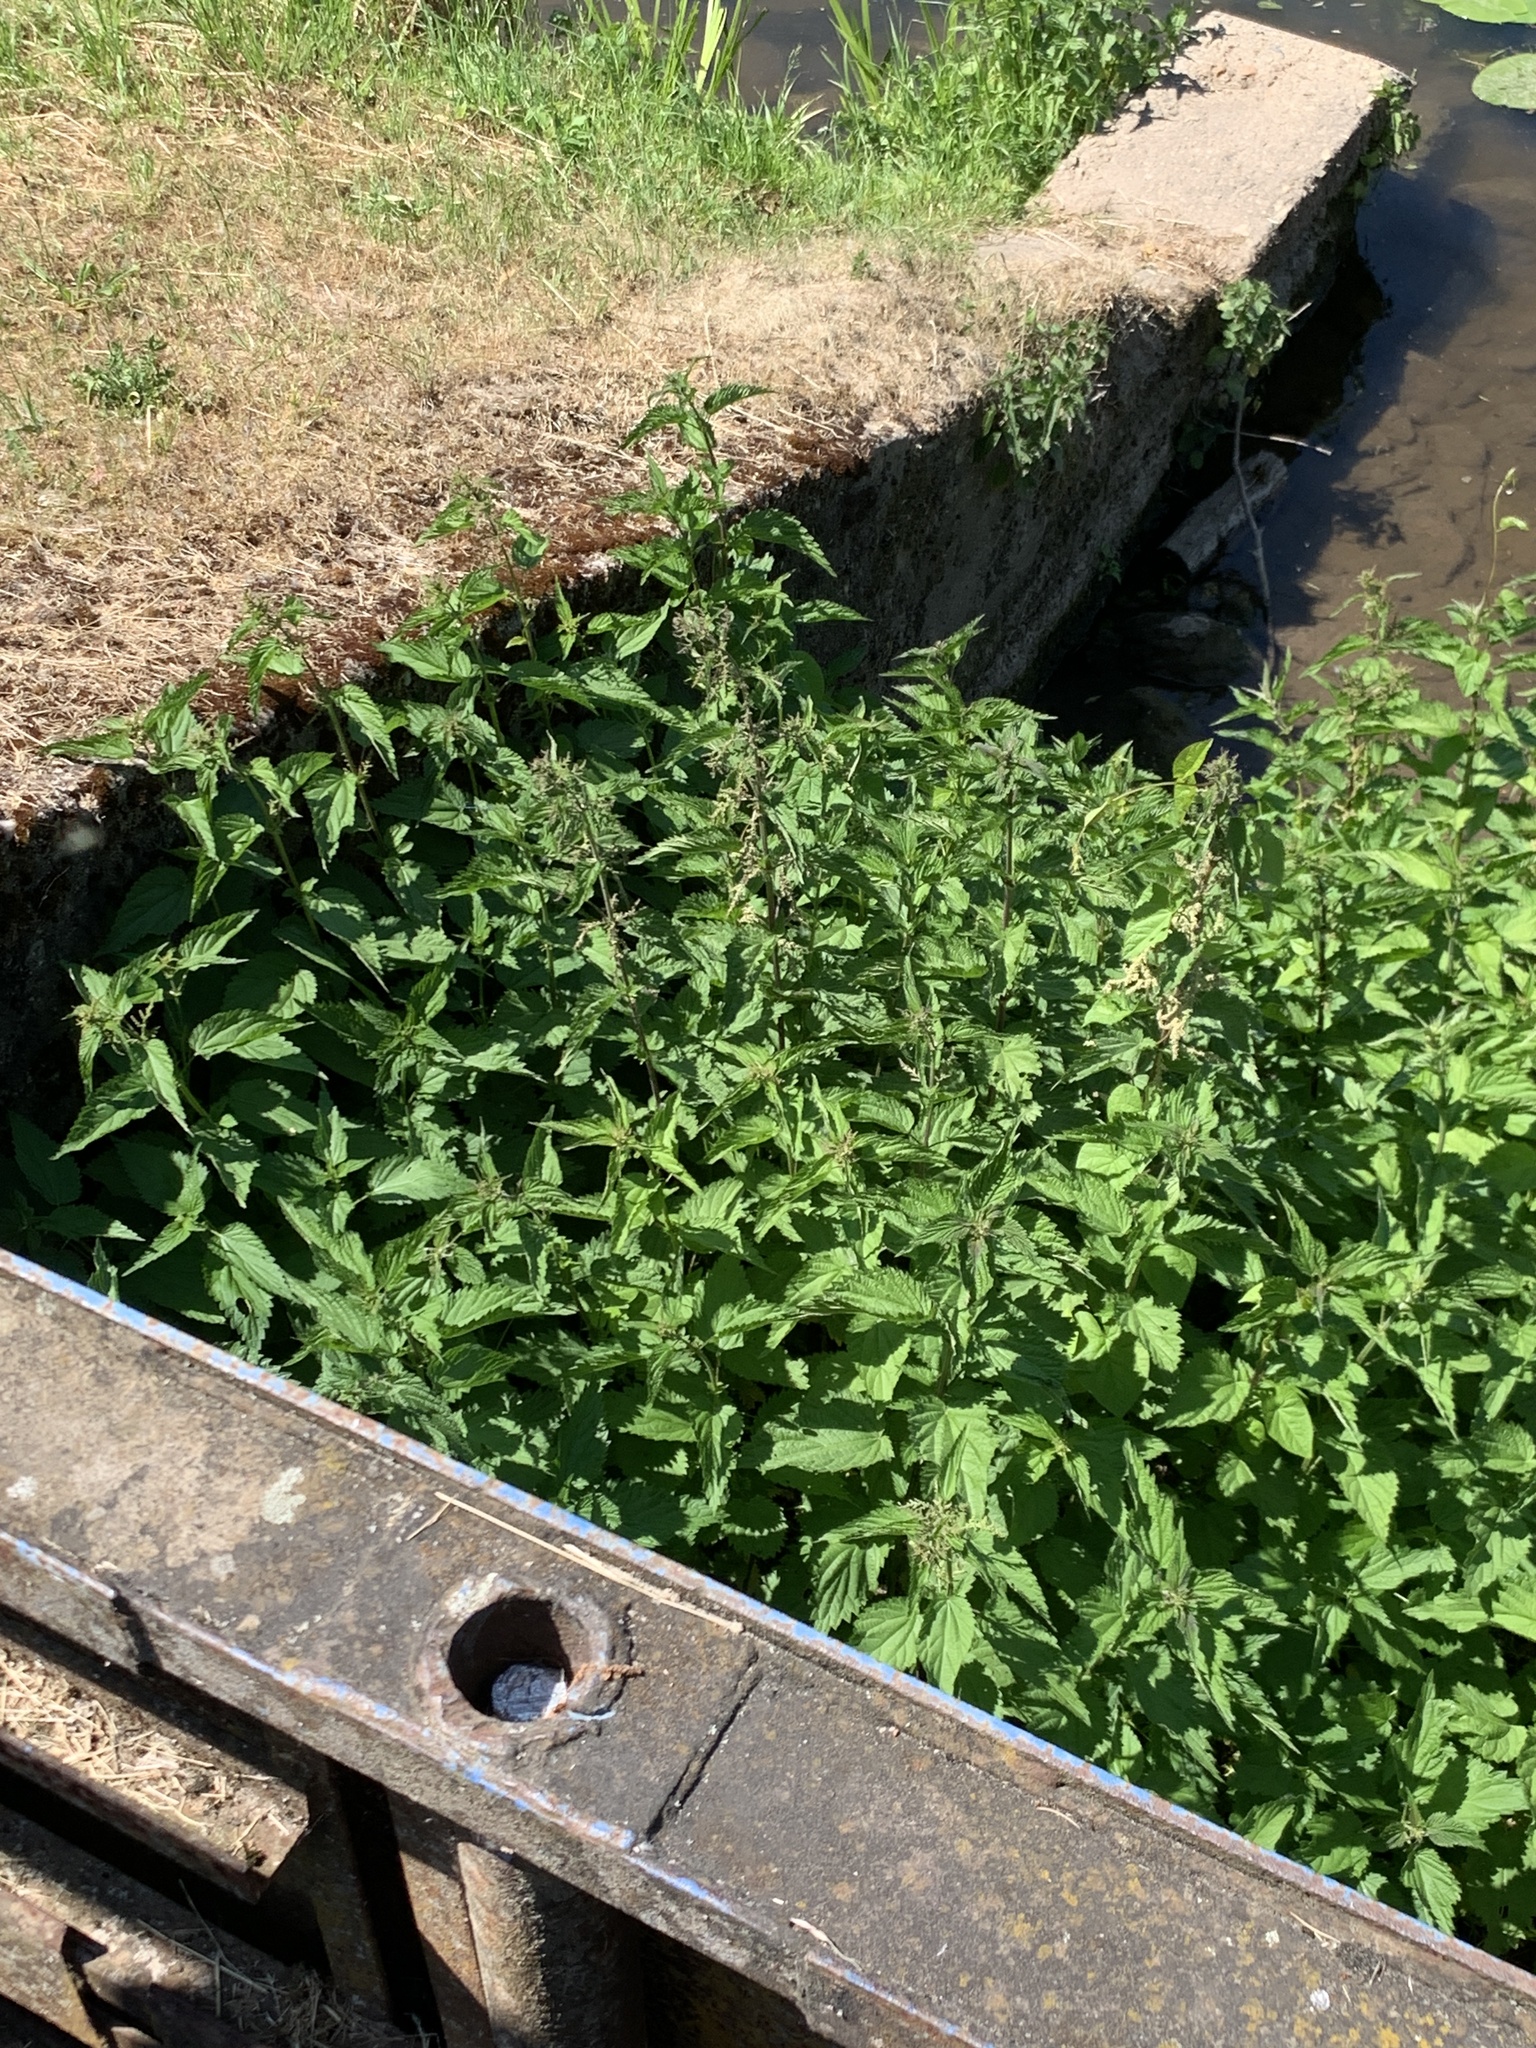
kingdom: Plantae
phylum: Tracheophyta
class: Magnoliopsida
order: Rosales
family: Urticaceae
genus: Urtica
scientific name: Urtica dioica
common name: Common nettle
